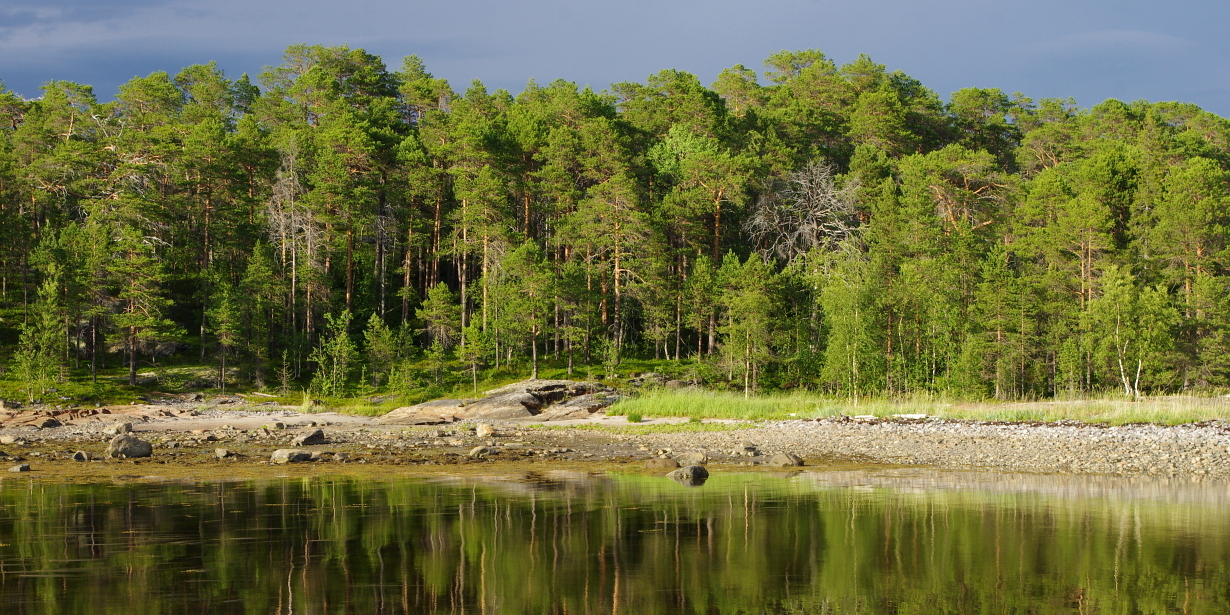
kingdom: Plantae
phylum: Tracheophyta
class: Pinopsida
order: Pinales
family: Pinaceae
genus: Pinus
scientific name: Pinus sylvestris
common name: Scots pine
